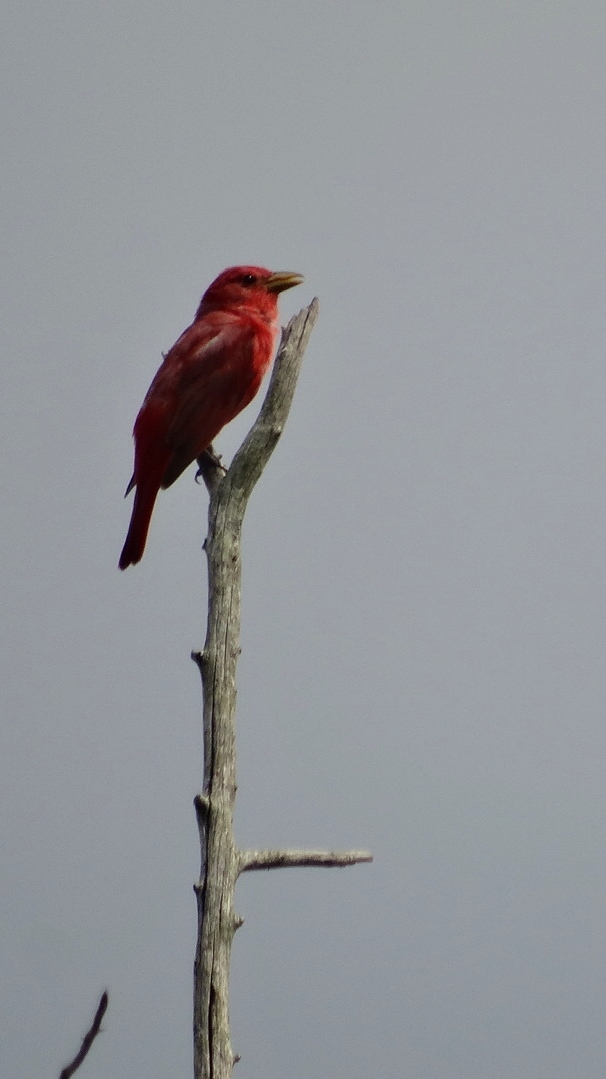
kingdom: Animalia
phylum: Chordata
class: Aves
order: Passeriformes
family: Cardinalidae
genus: Piranga
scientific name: Piranga rubra
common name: Summer tanager
